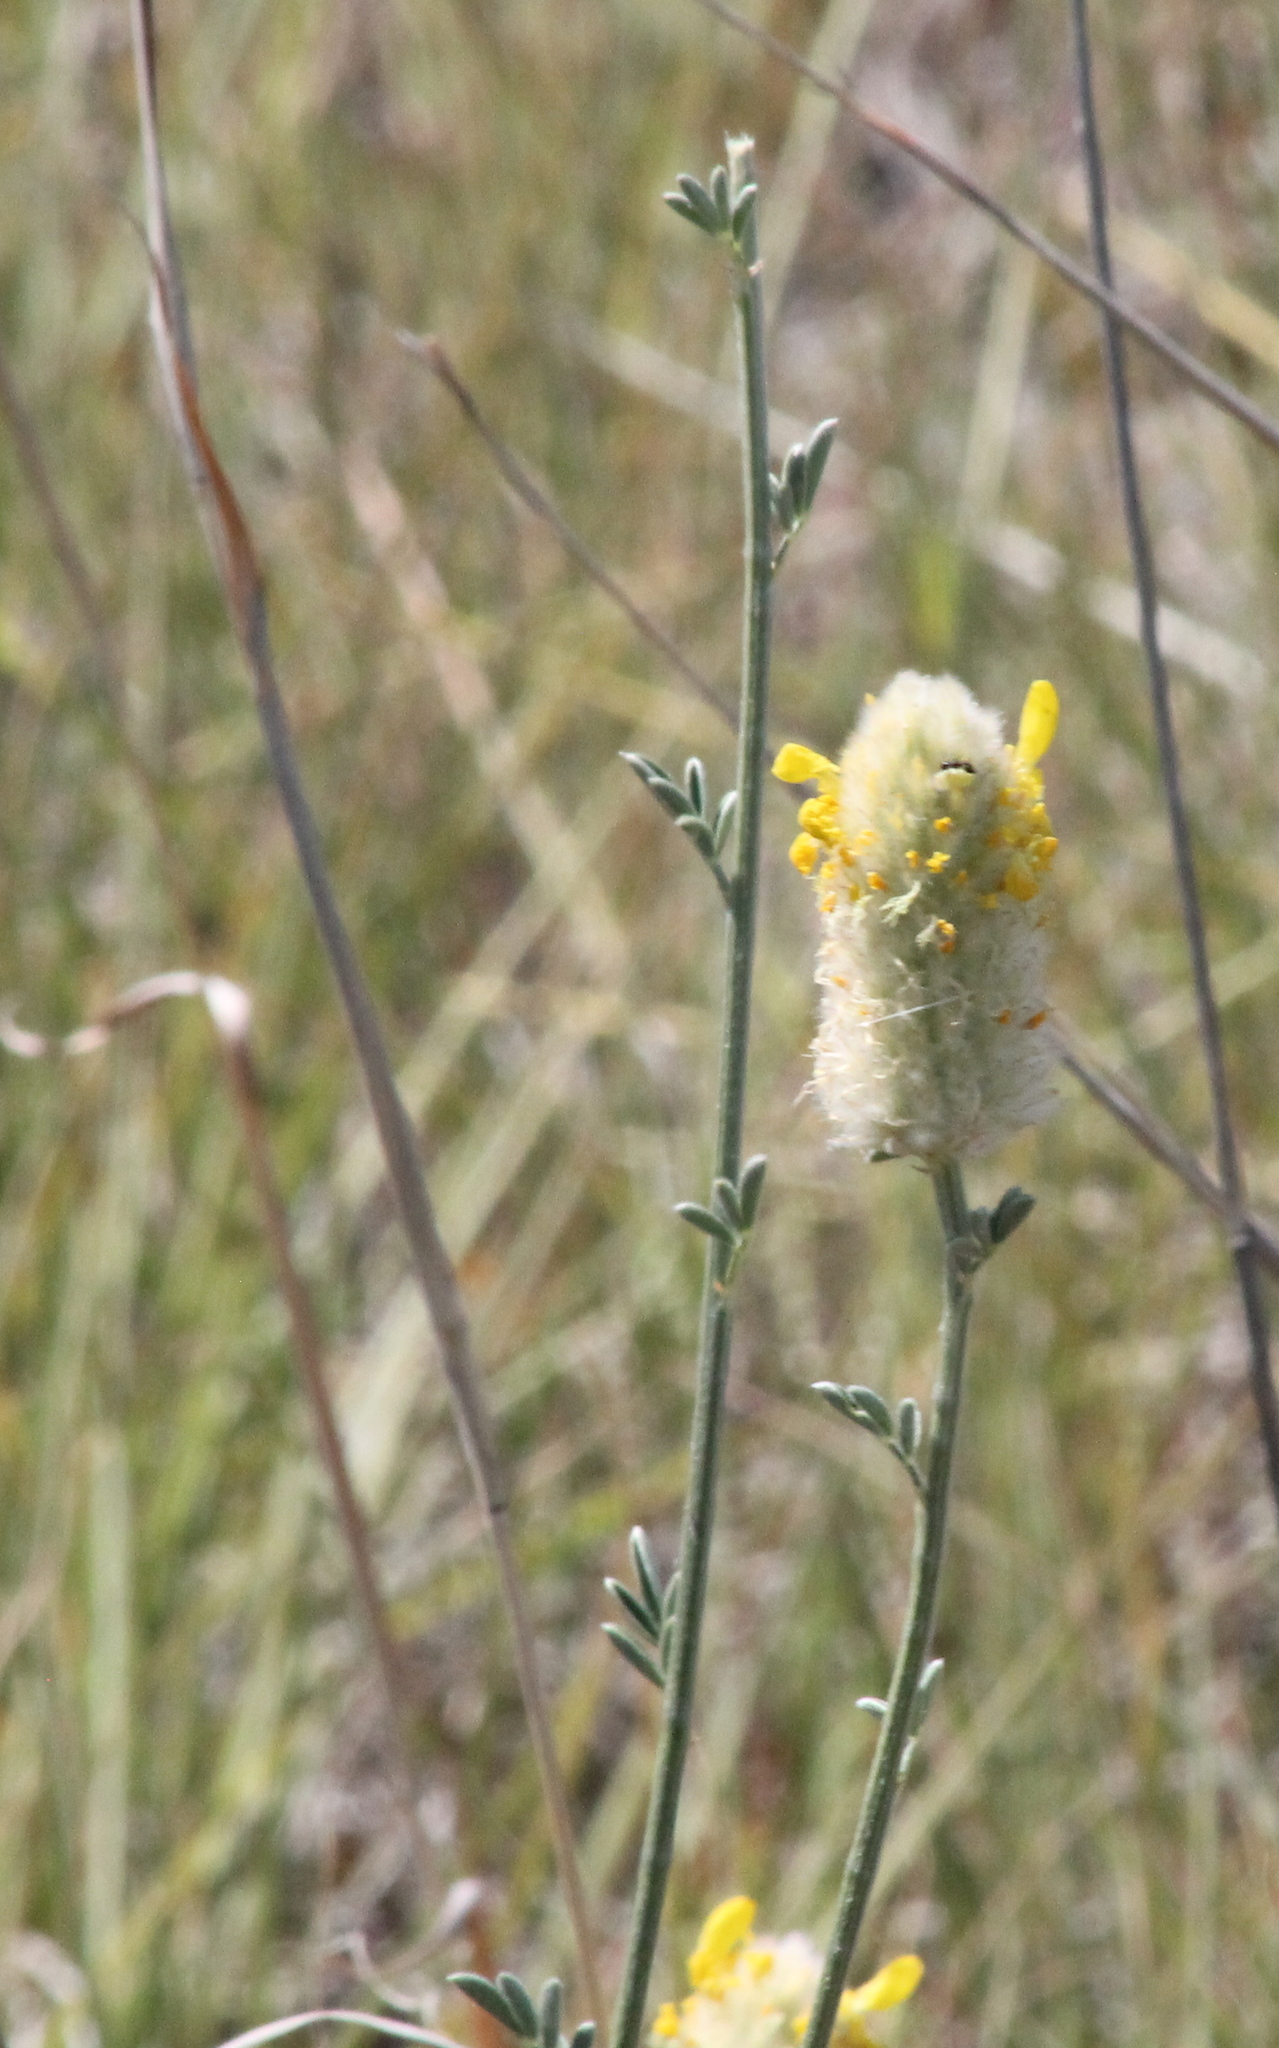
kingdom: Plantae
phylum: Tracheophyta
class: Magnoliopsida
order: Fabales
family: Fabaceae
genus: Dalea
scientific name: Dalea aurea
